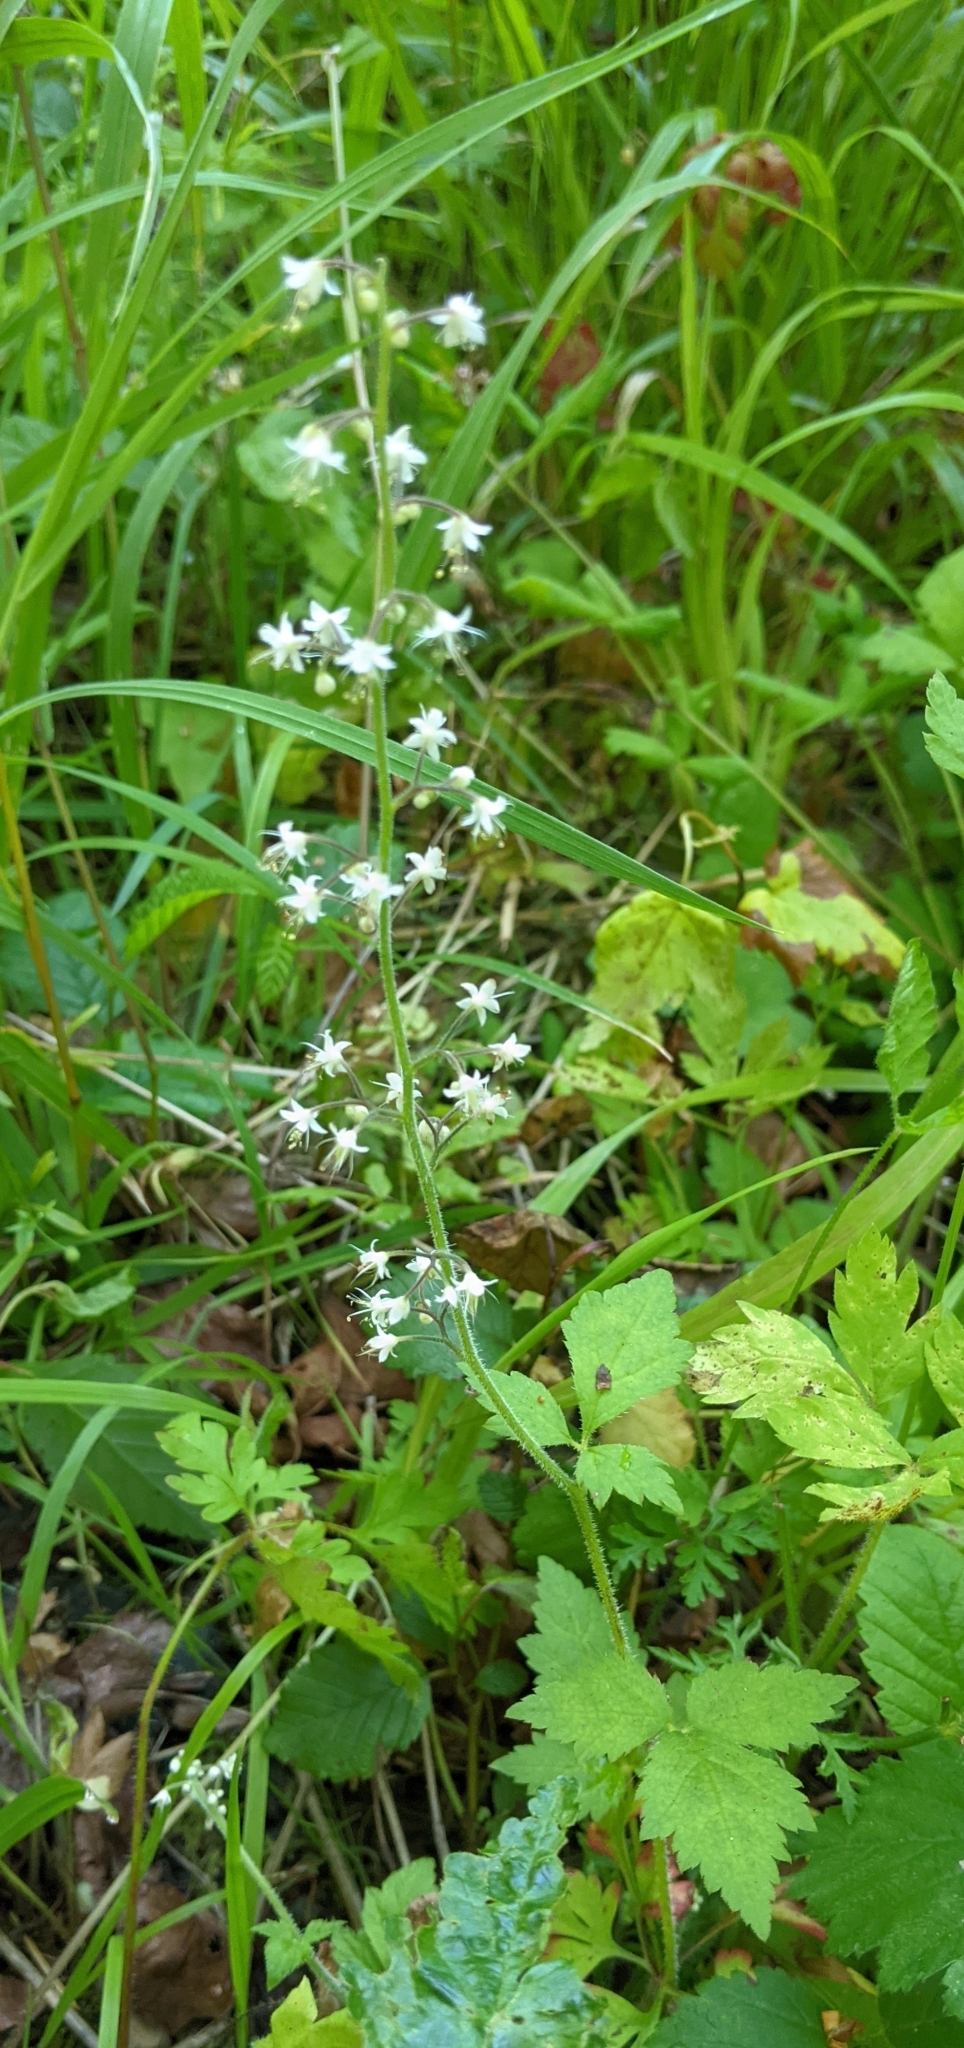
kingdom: Plantae
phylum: Tracheophyta
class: Magnoliopsida
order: Saxifragales
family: Saxifragaceae
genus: Tiarella
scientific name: Tiarella trifoliata
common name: Sugar-scoop
